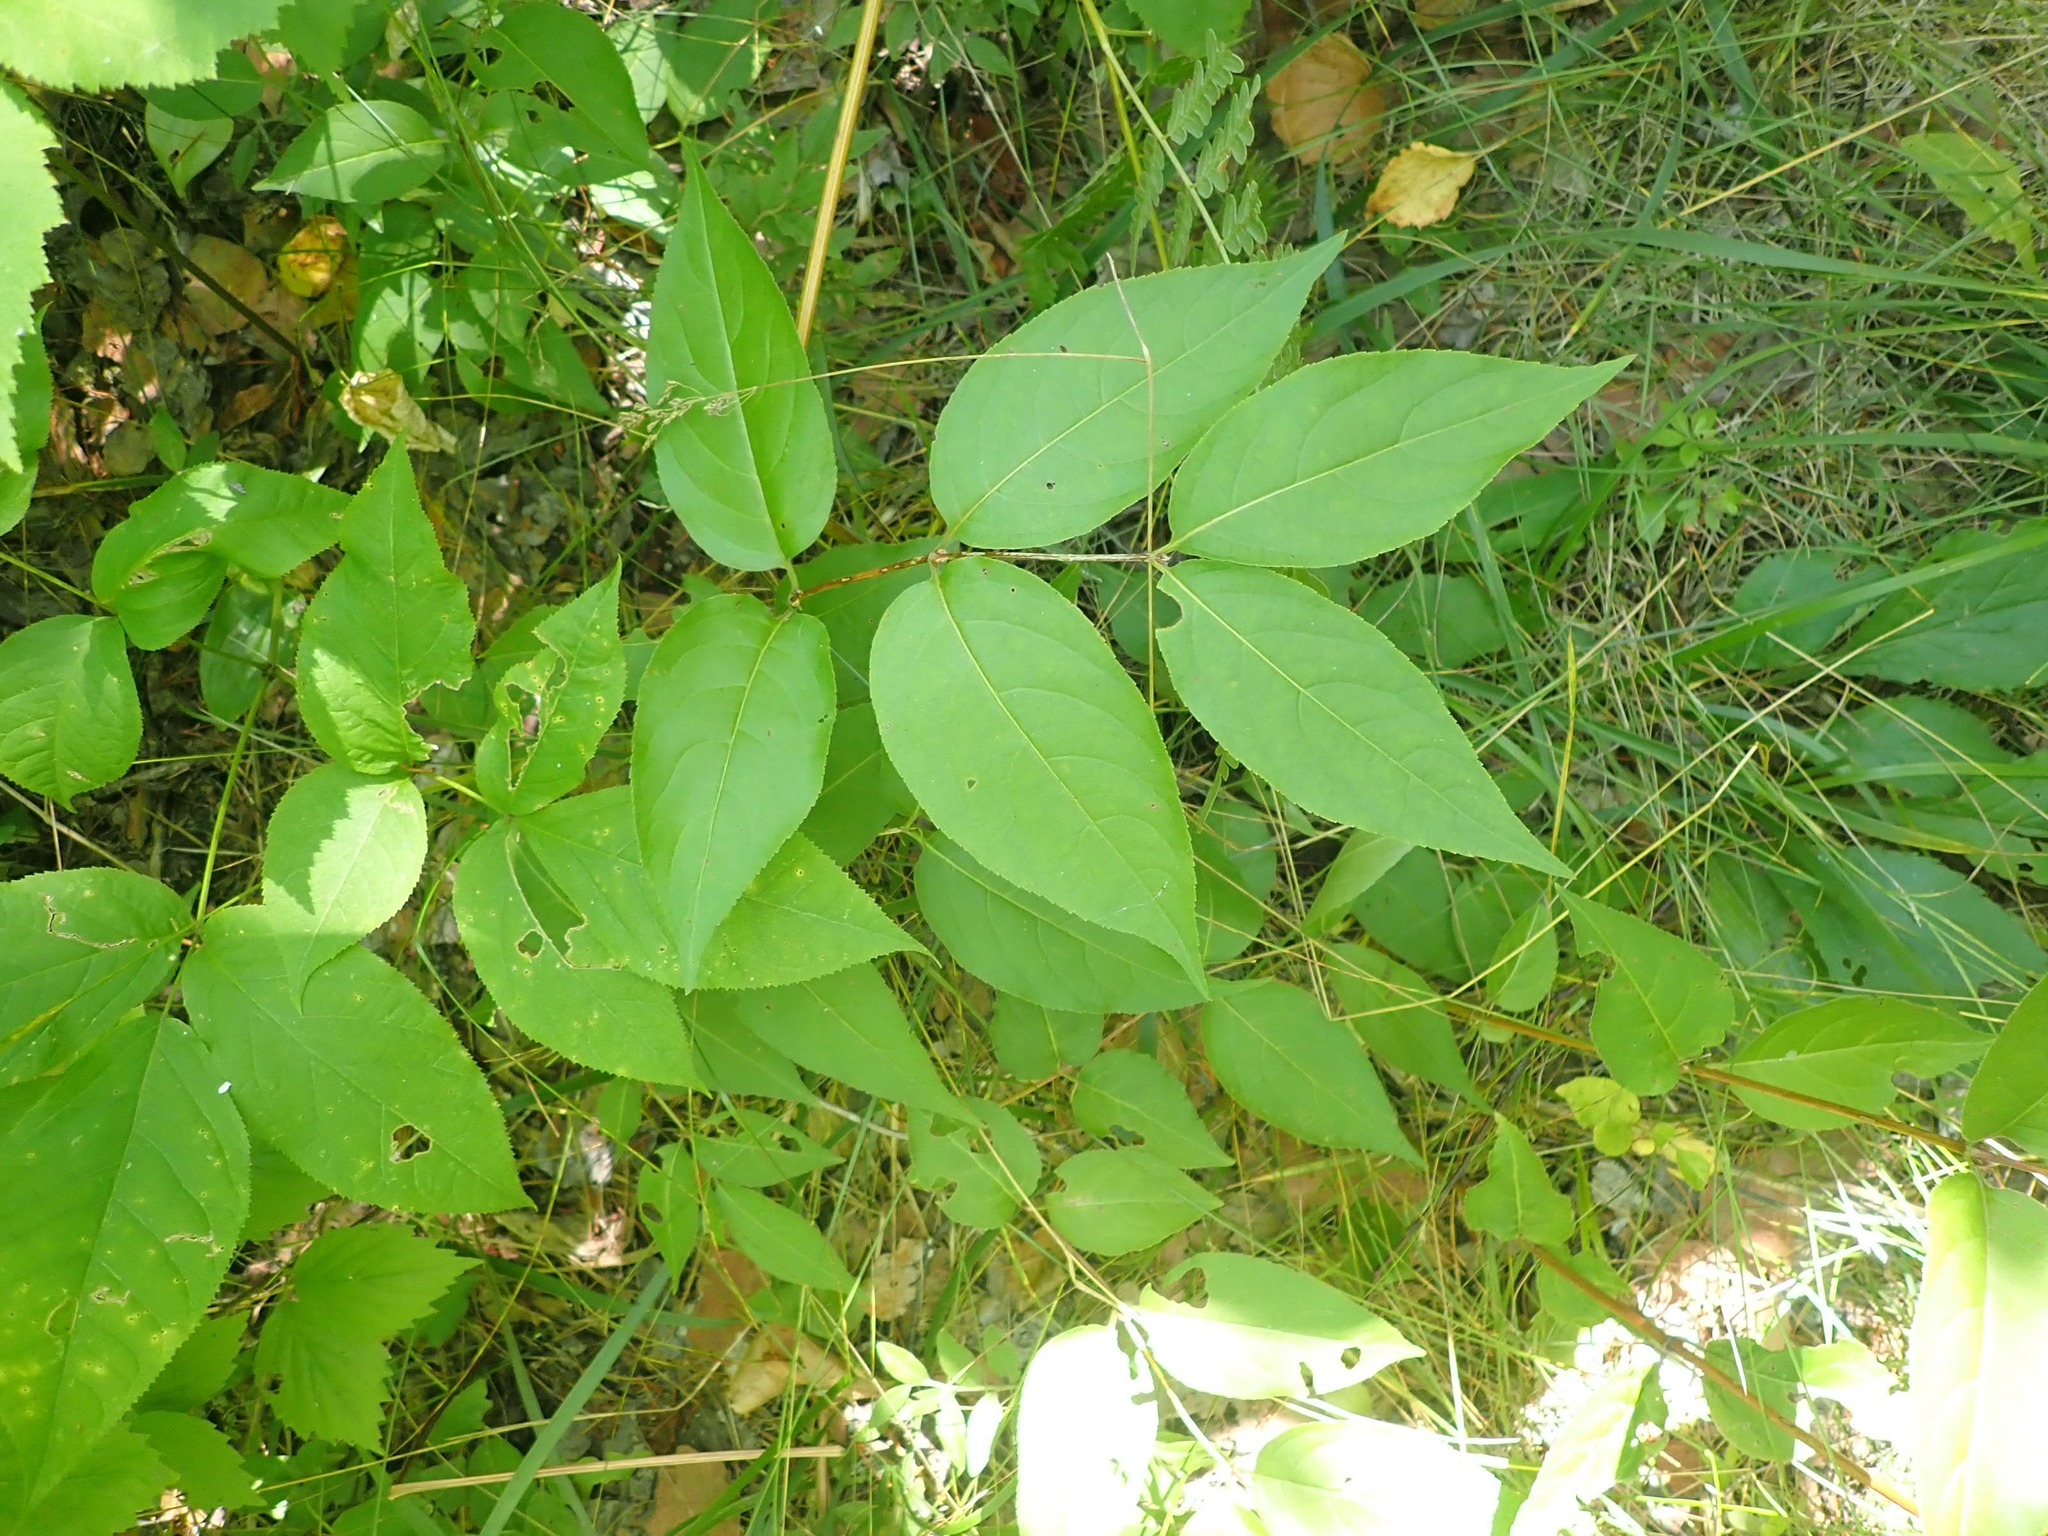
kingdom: Plantae
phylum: Tracheophyta
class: Magnoliopsida
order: Dipsacales
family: Caprifoliaceae
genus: Diervilla
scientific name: Diervilla lonicera
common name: Bush-honeysuckle
